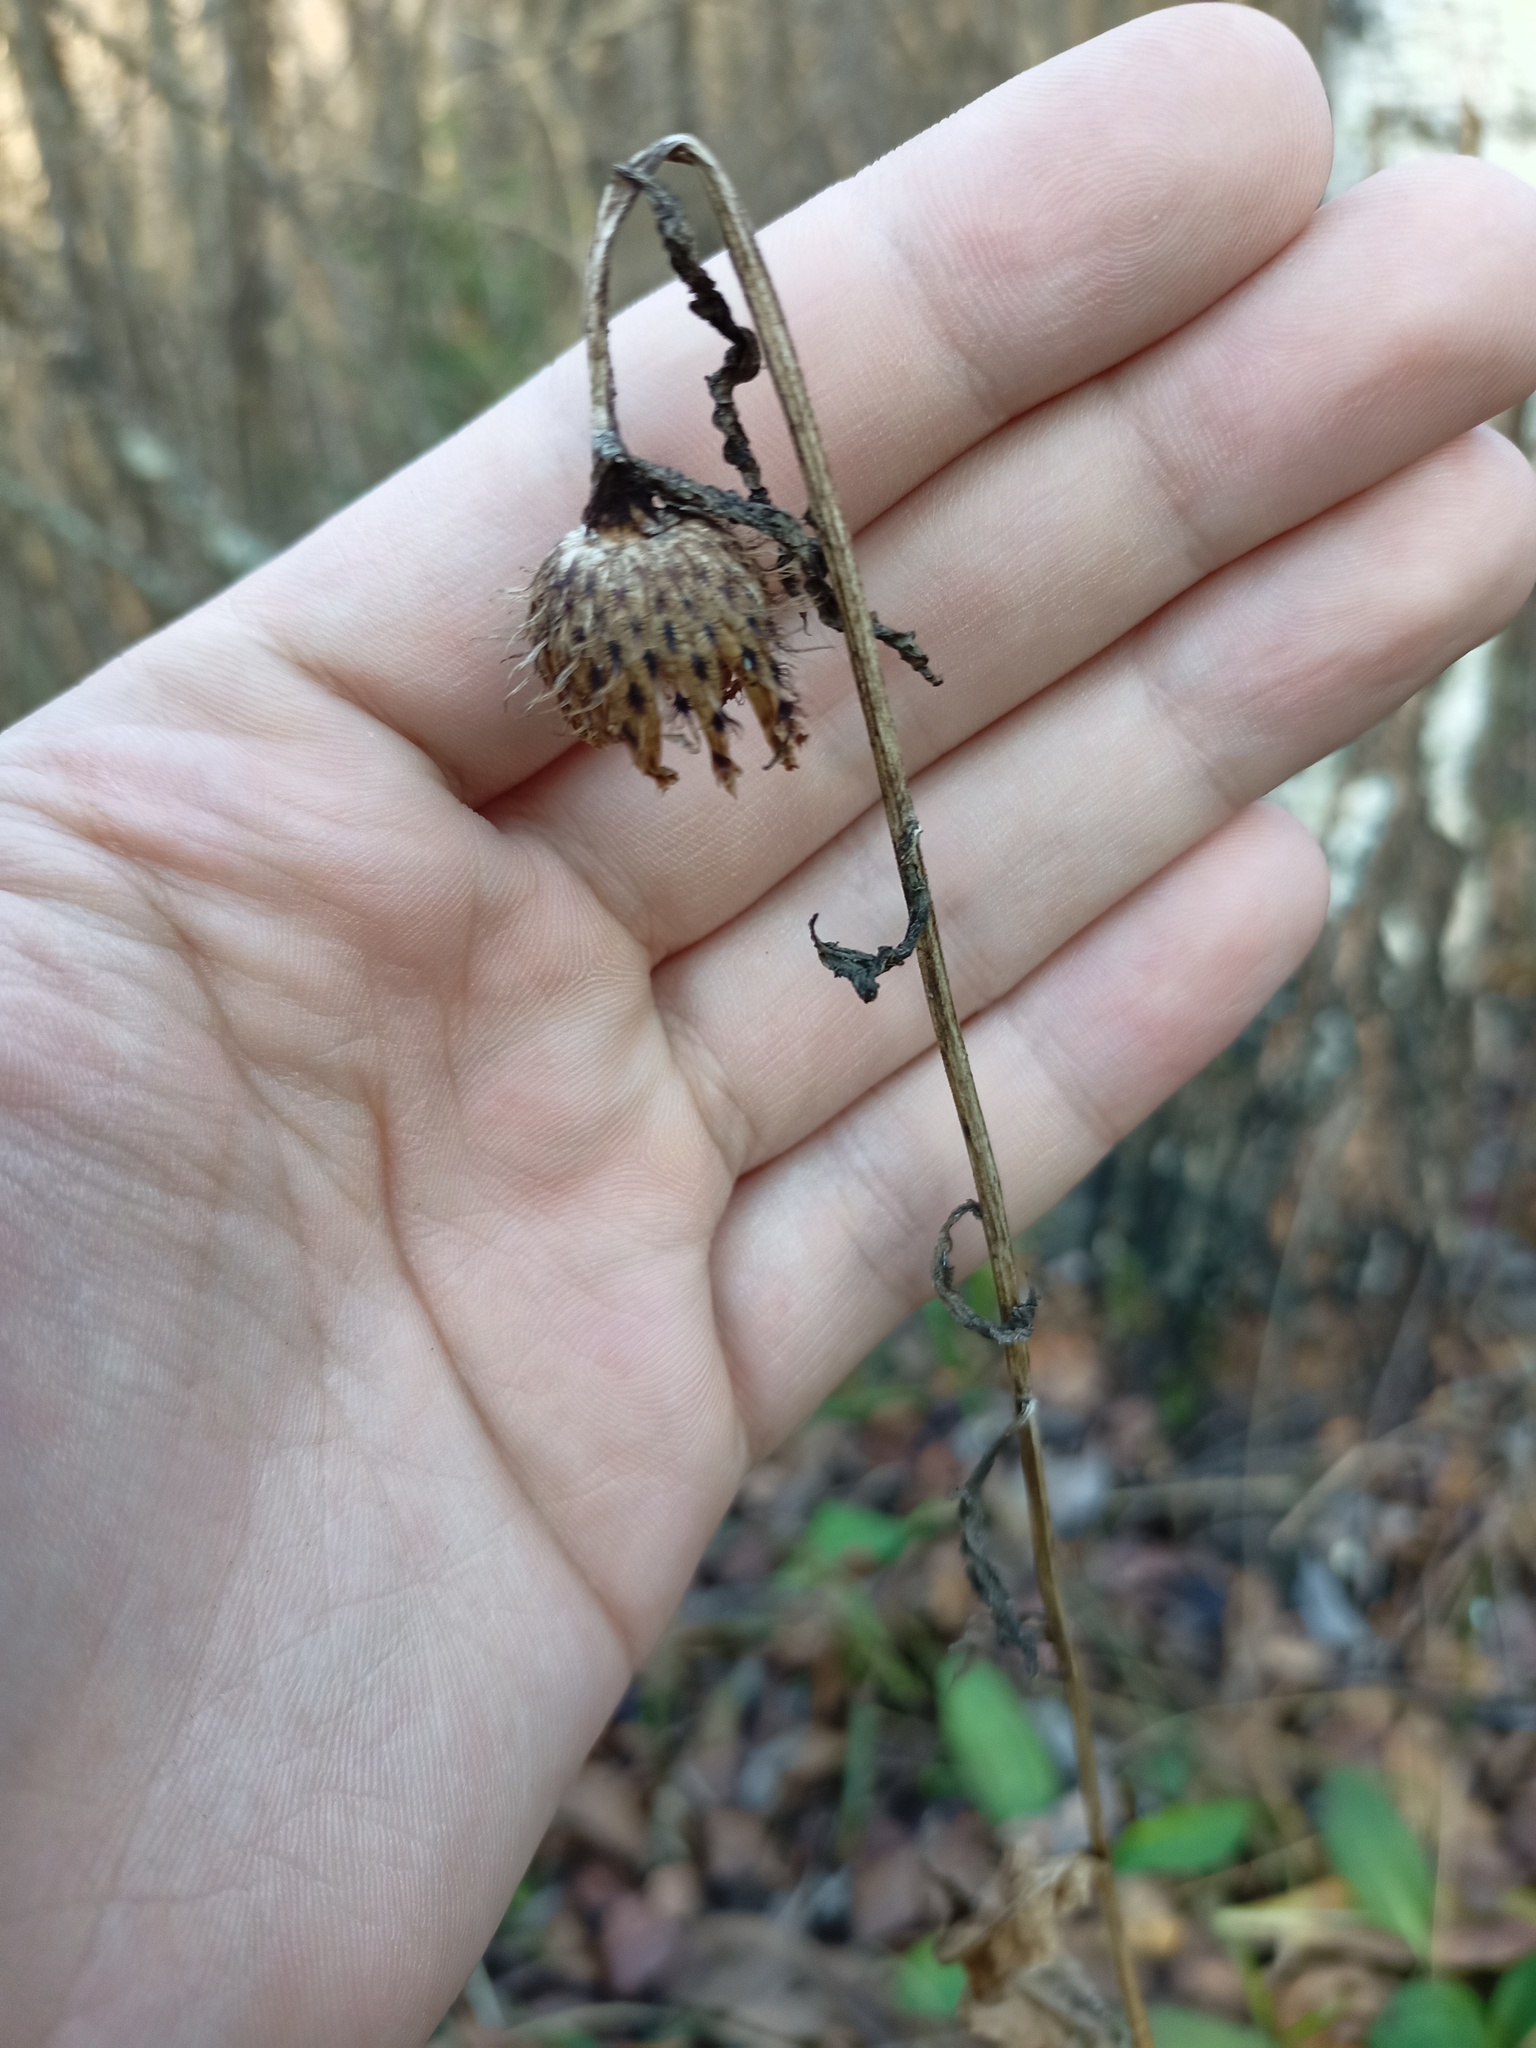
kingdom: Plantae
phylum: Tracheophyta
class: Magnoliopsida
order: Asterales
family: Asteraceae
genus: Centaurea
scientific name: Centaurea phrygia
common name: Wig knapweed
